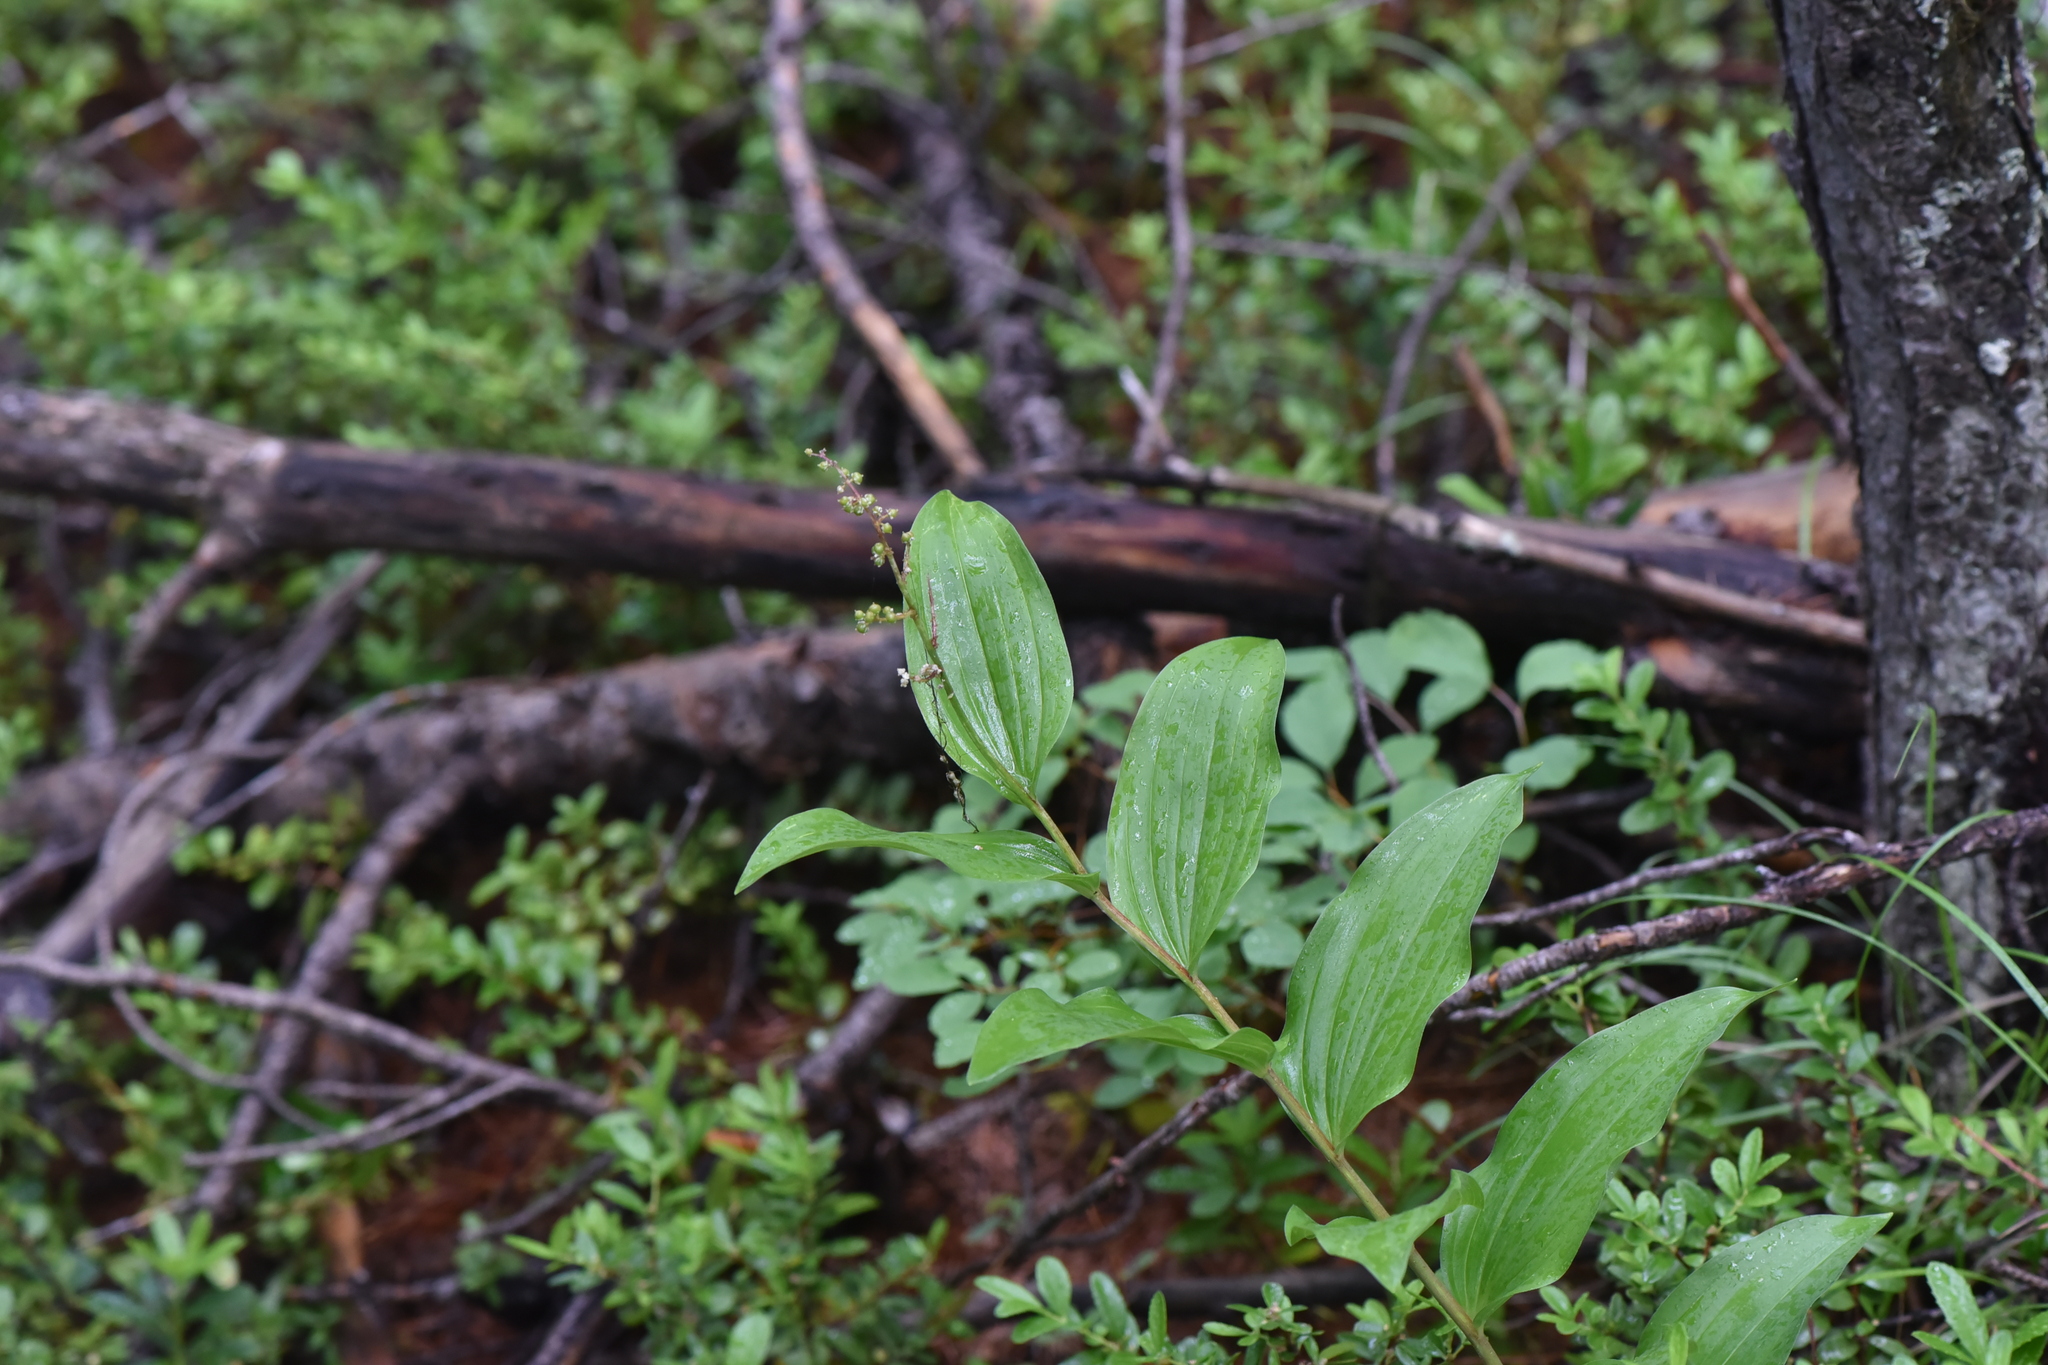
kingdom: Plantae
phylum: Tracheophyta
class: Liliopsida
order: Asparagales
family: Asparagaceae
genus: Maianthemum
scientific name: Maianthemum racemosum
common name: False spikenard
